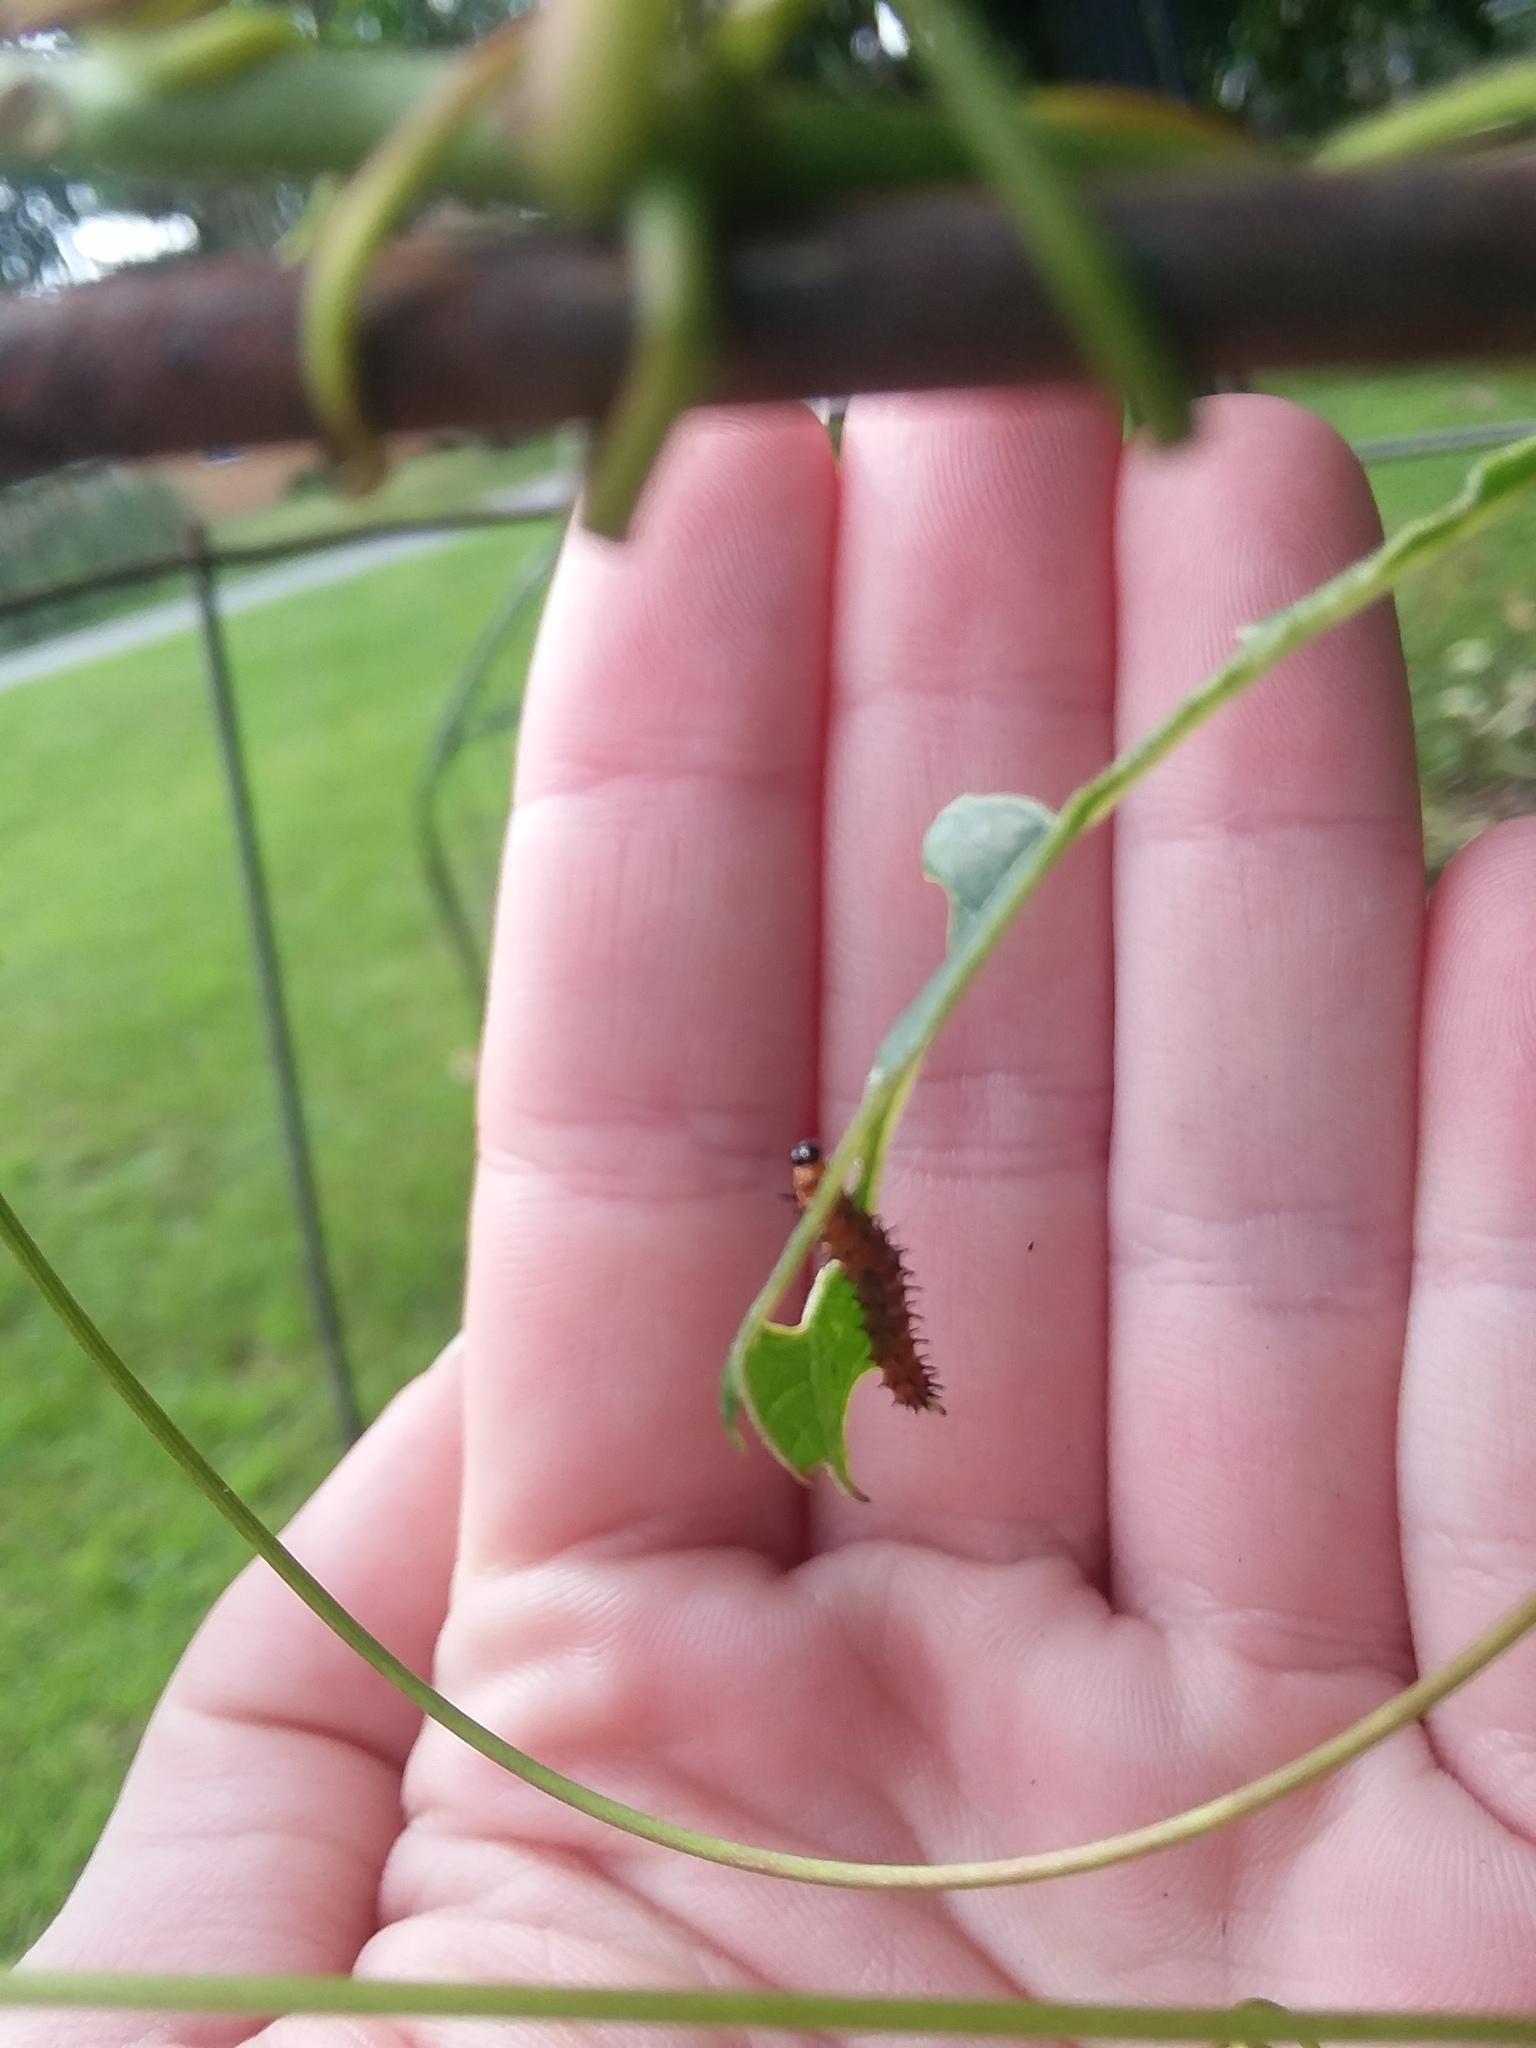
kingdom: Animalia
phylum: Arthropoda
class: Insecta
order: Lepidoptera
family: Nymphalidae
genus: Dione
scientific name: Dione vanillae
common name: Gulf fritillary
